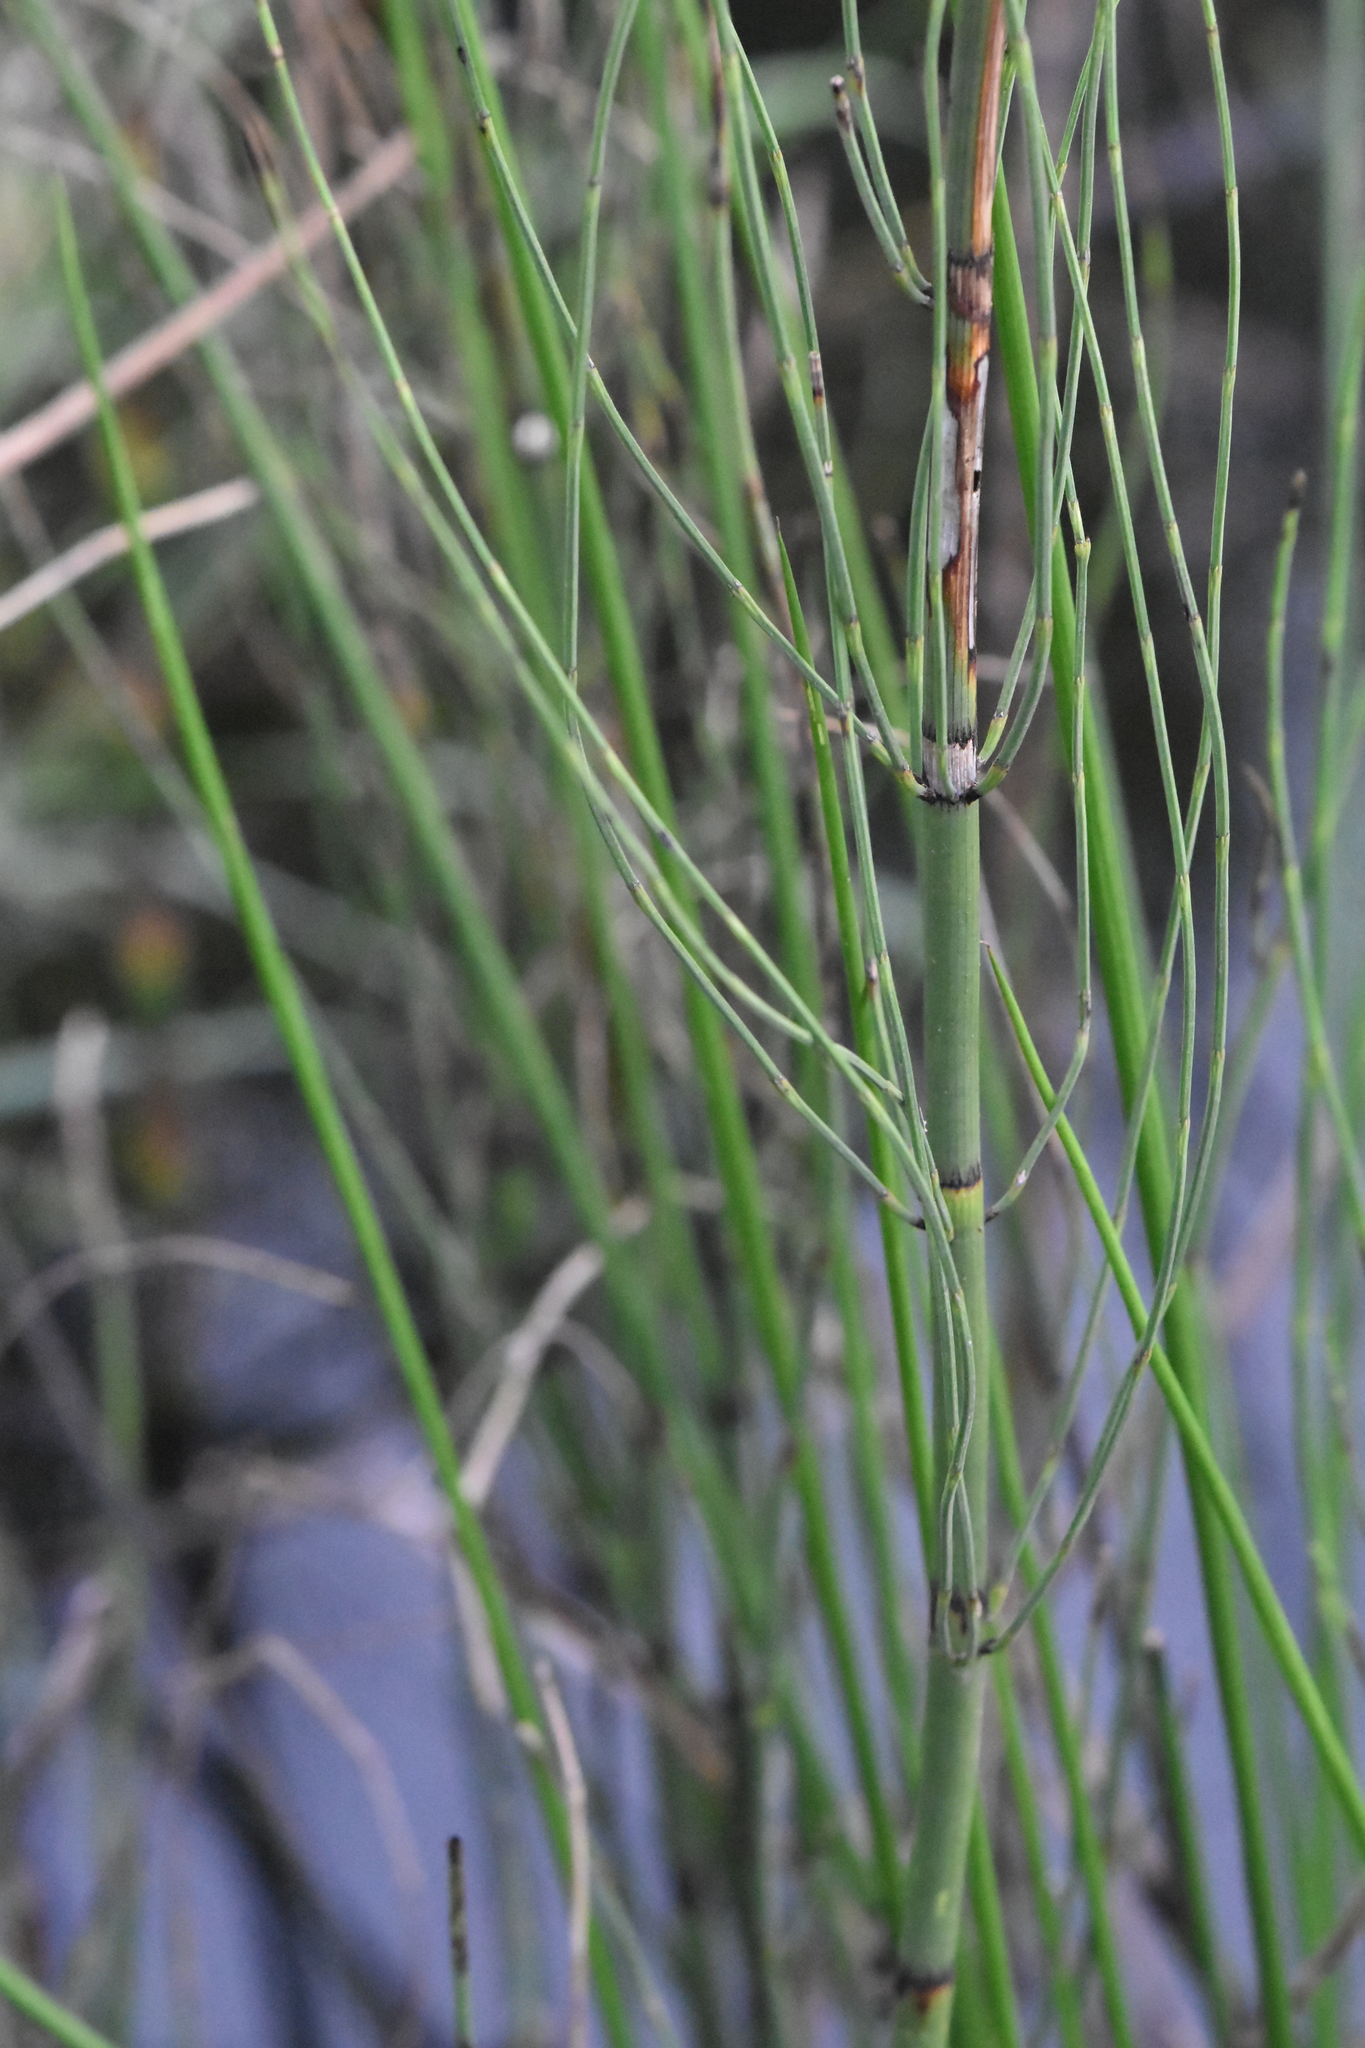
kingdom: Plantae
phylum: Tracheophyta
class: Polypodiopsida
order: Equisetales
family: Equisetaceae
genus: Equisetum
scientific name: Equisetum fluviatile
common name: Water horsetail
